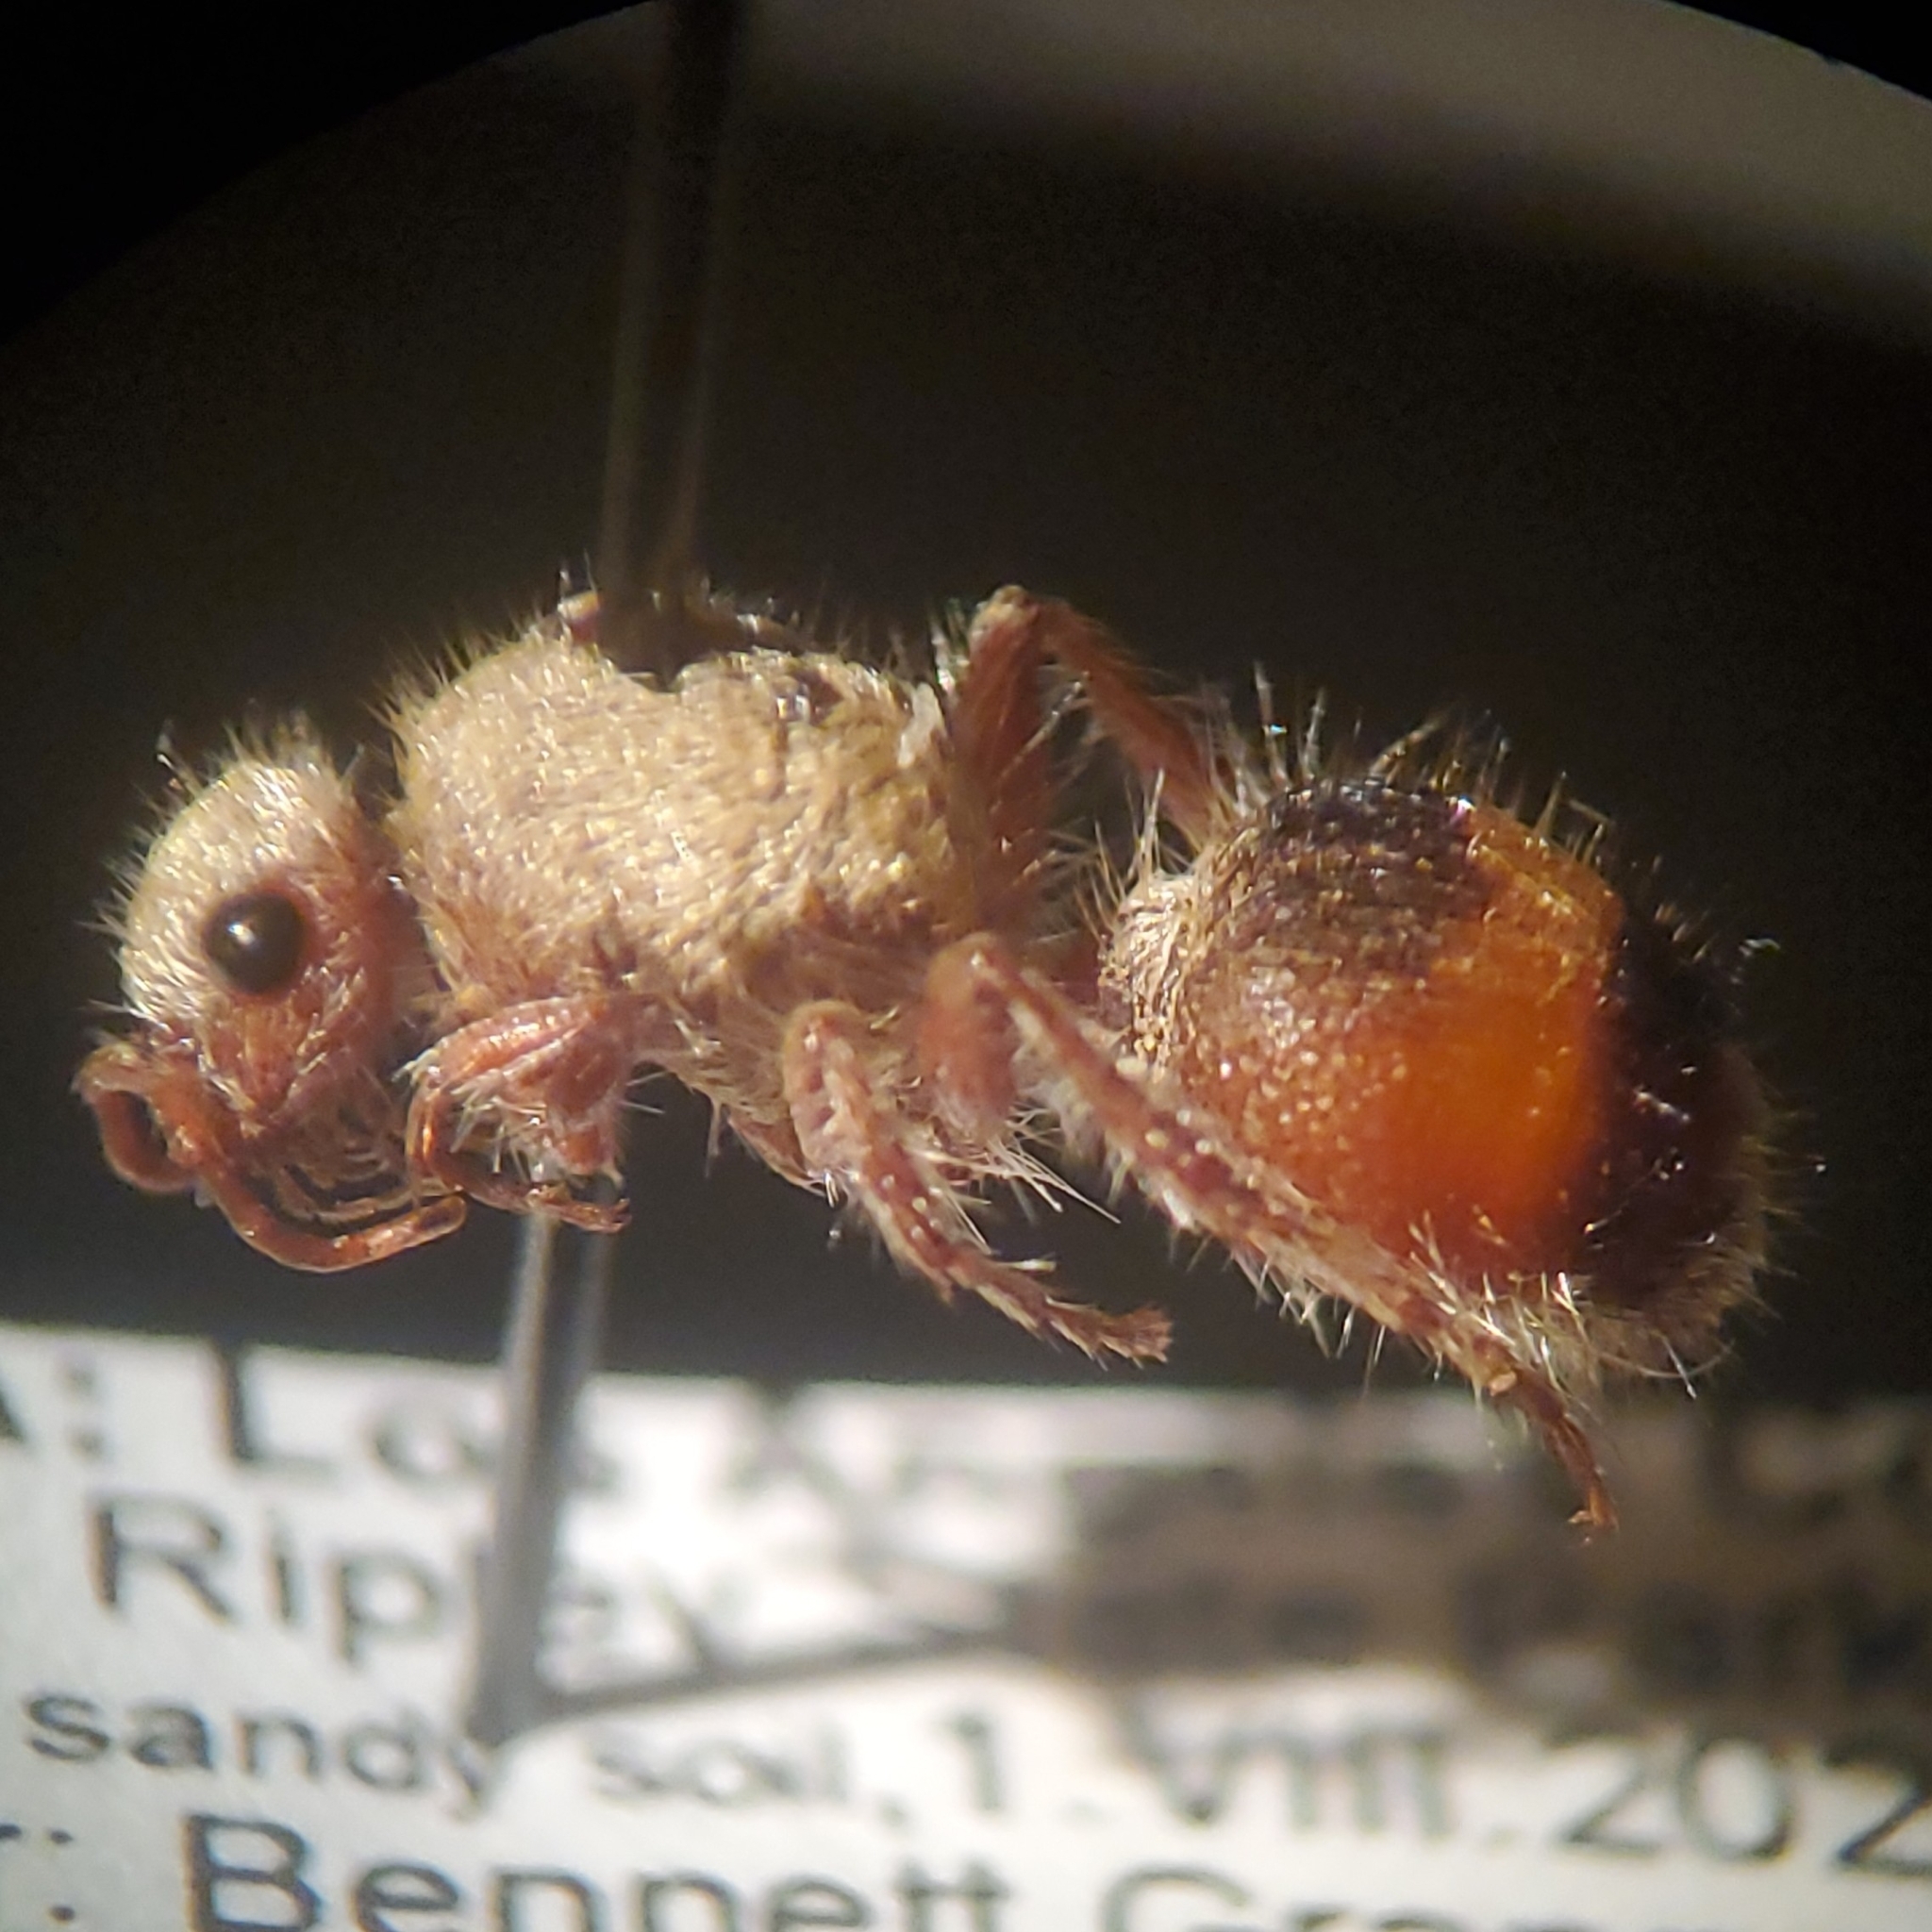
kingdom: Animalia
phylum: Arthropoda
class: Insecta
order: Hymenoptera
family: Mutillidae
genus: Dasymutilla
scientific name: Dasymutilla monticola
